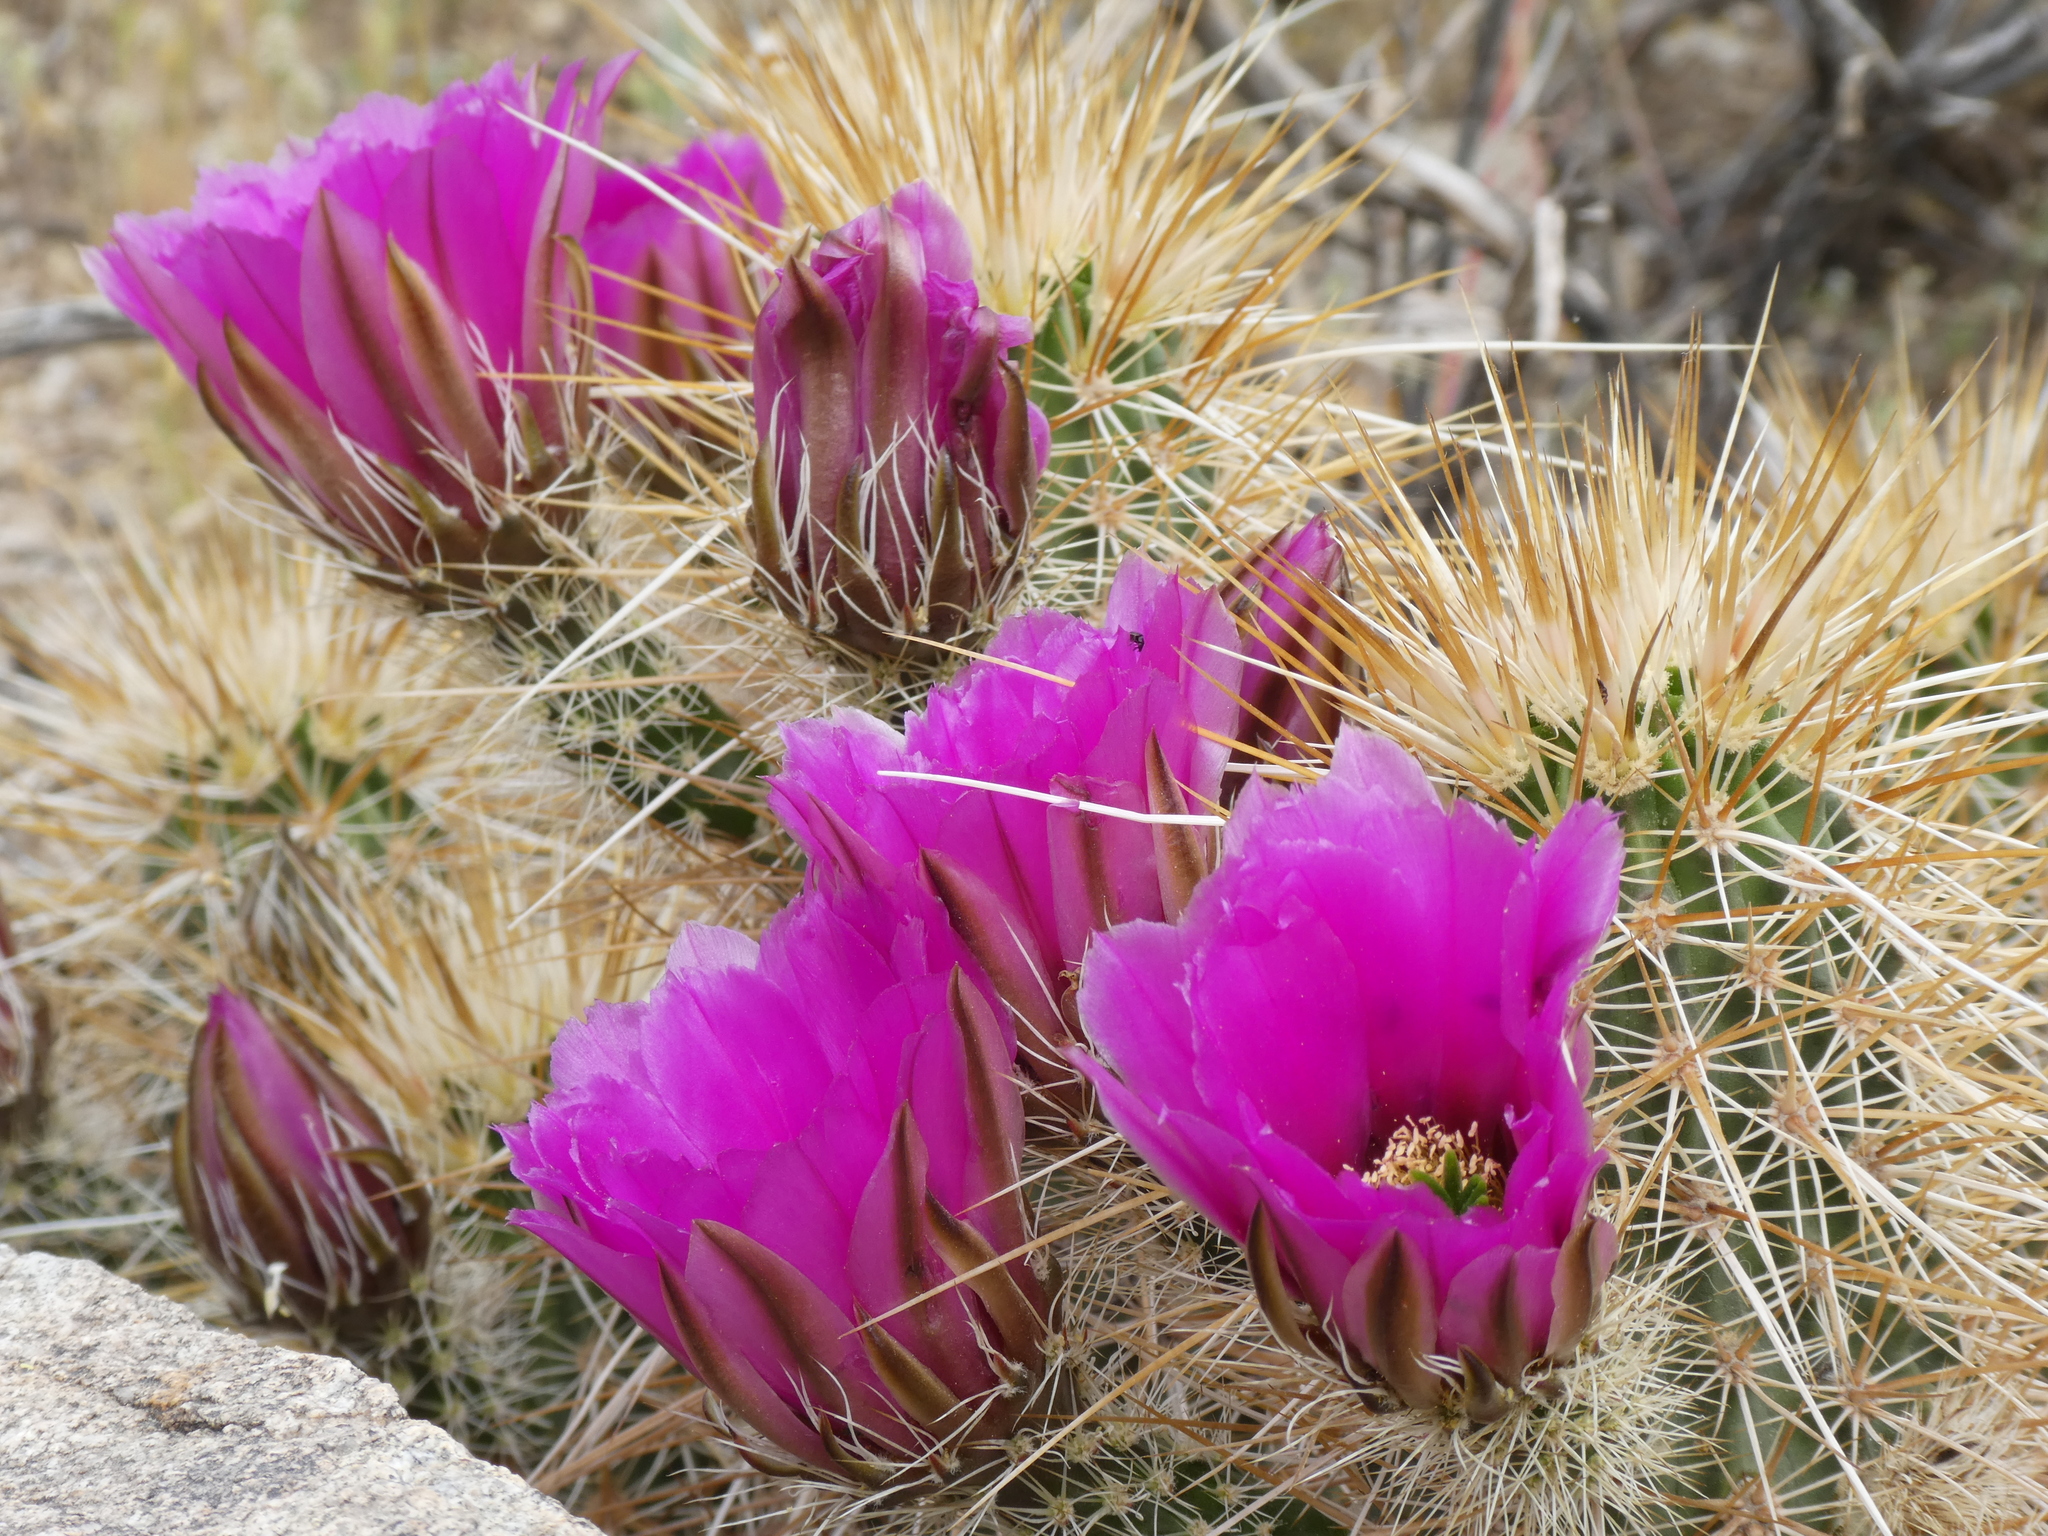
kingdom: Plantae
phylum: Tracheophyta
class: Magnoliopsida
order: Caryophyllales
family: Cactaceae
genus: Echinocereus
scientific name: Echinocereus engelmannii
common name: Engelmann's hedgehog cactus
